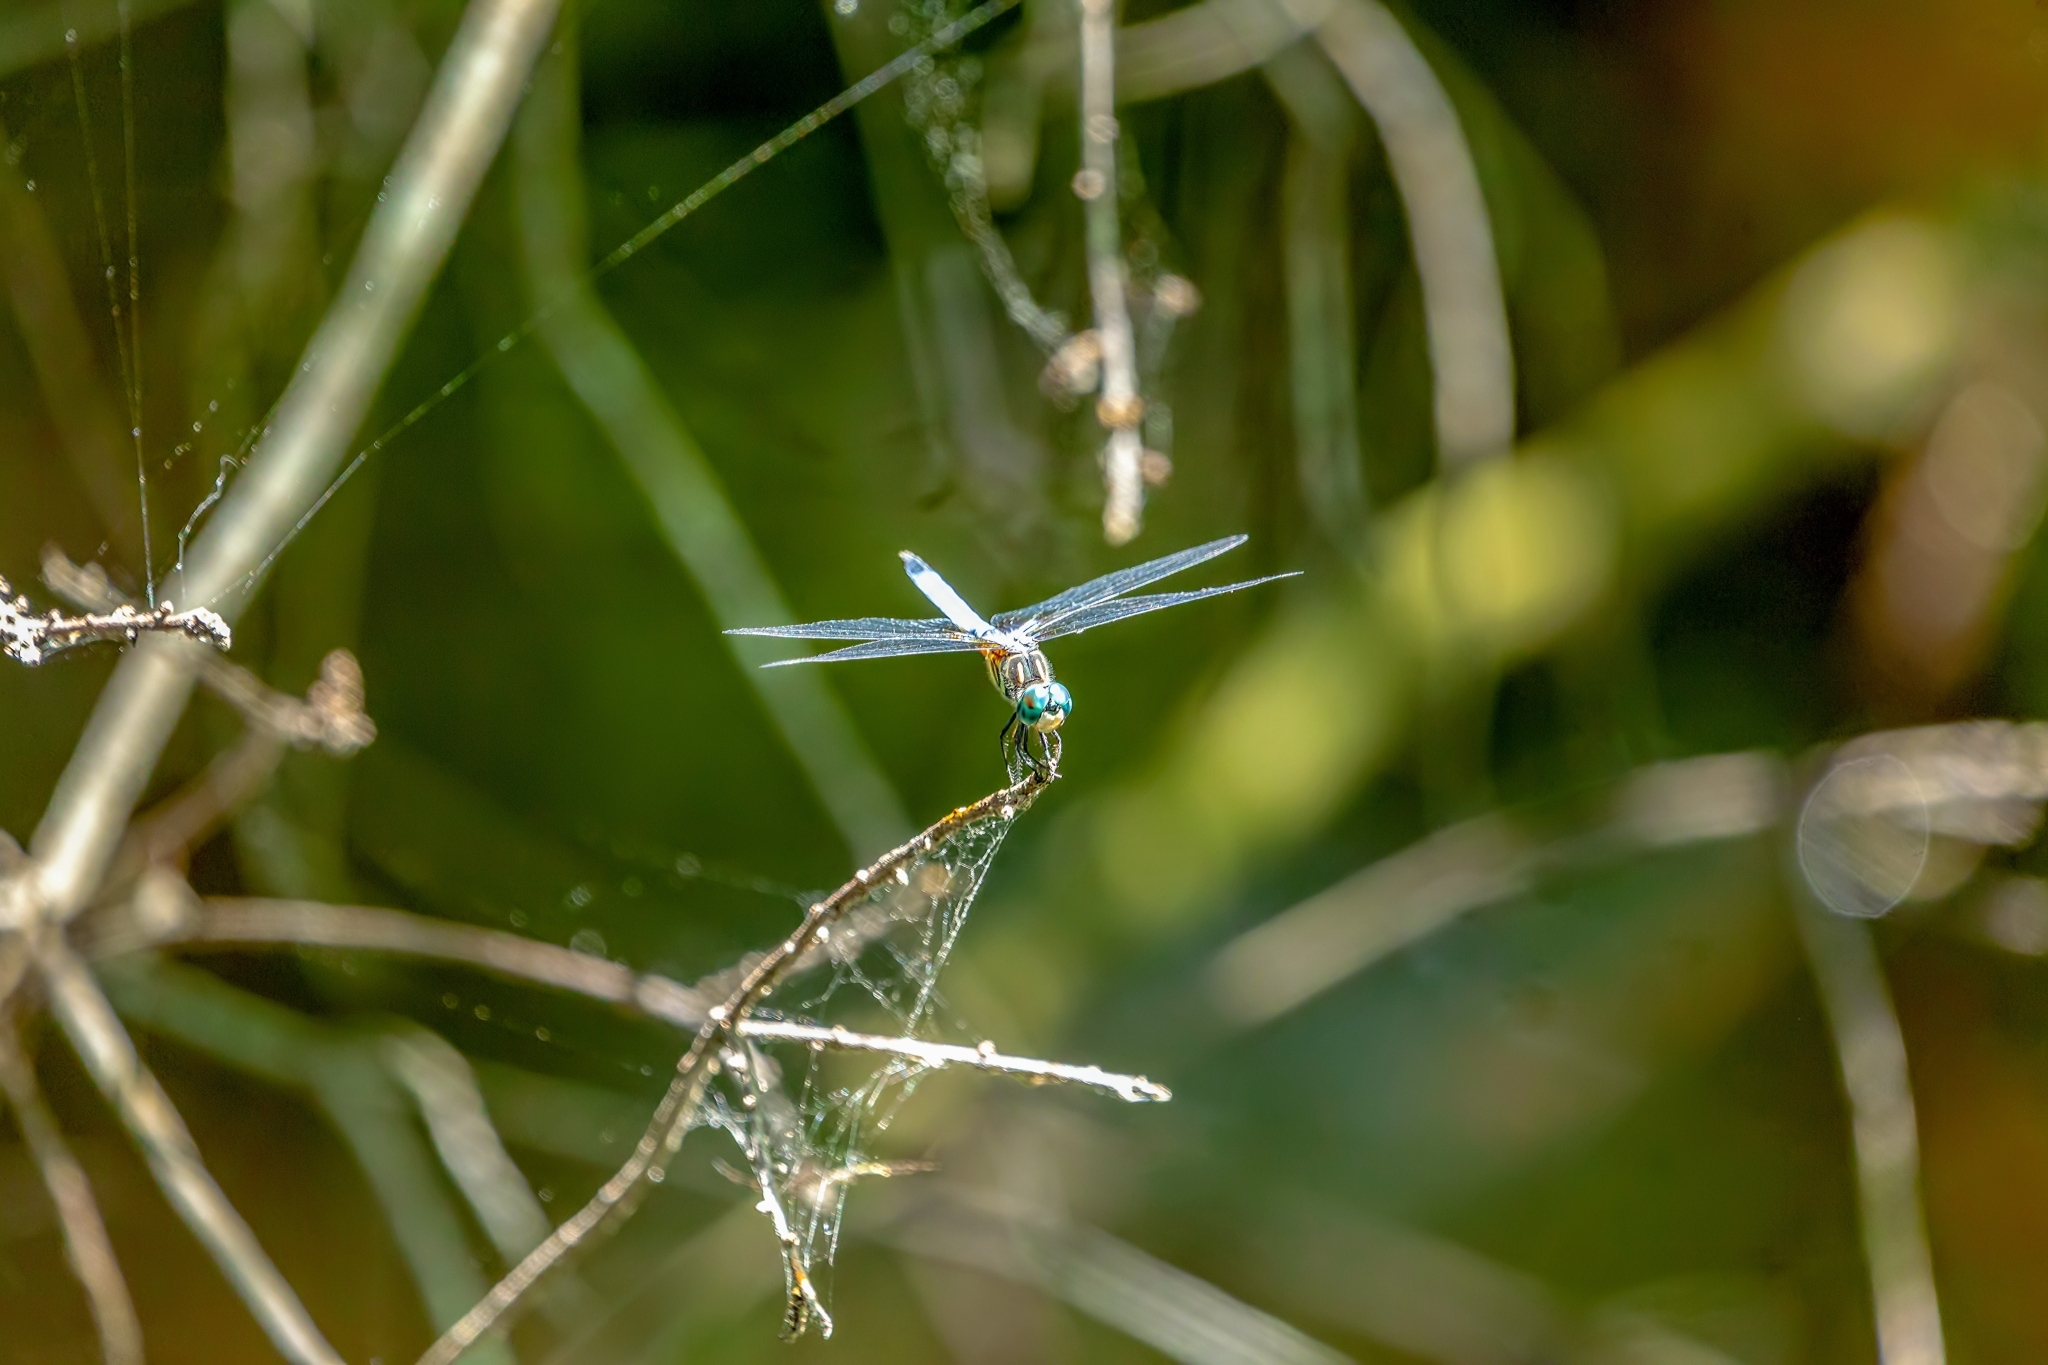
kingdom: Animalia
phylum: Arthropoda
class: Insecta
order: Odonata
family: Libellulidae
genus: Pachydiplax
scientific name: Pachydiplax longipennis
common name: Blue dasher
